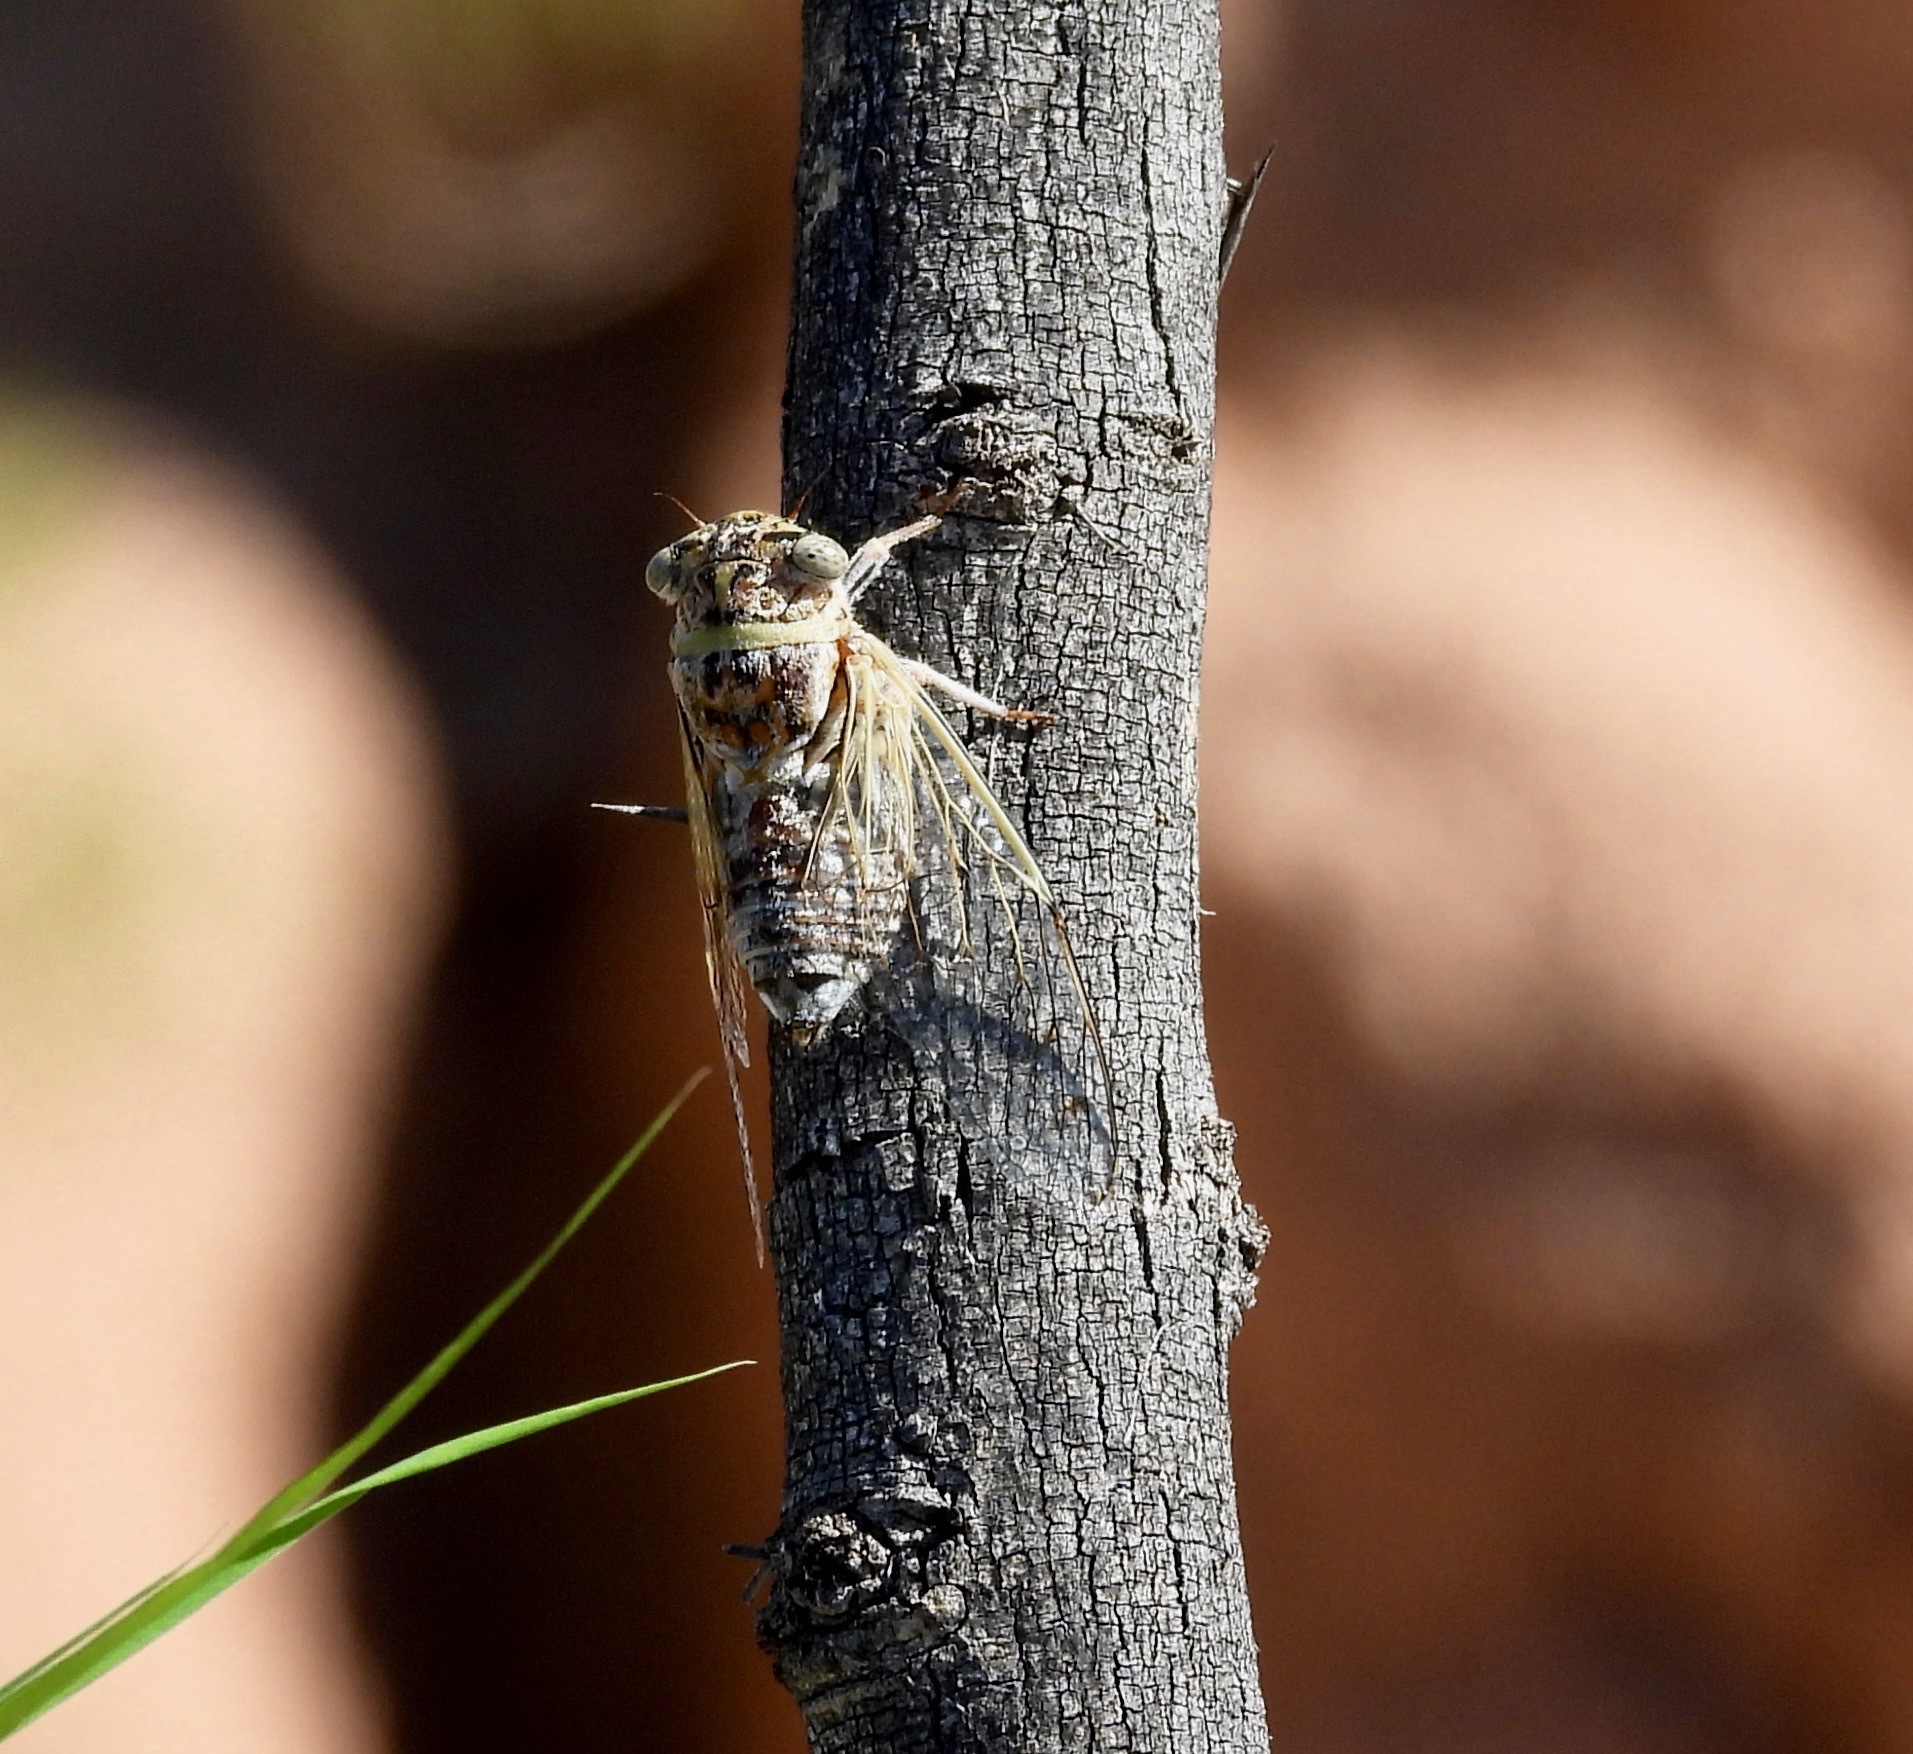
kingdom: Animalia
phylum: Arthropoda
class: Insecta
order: Hemiptera
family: Cicadidae
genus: Diceroprocta
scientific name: Diceroprocta texana
